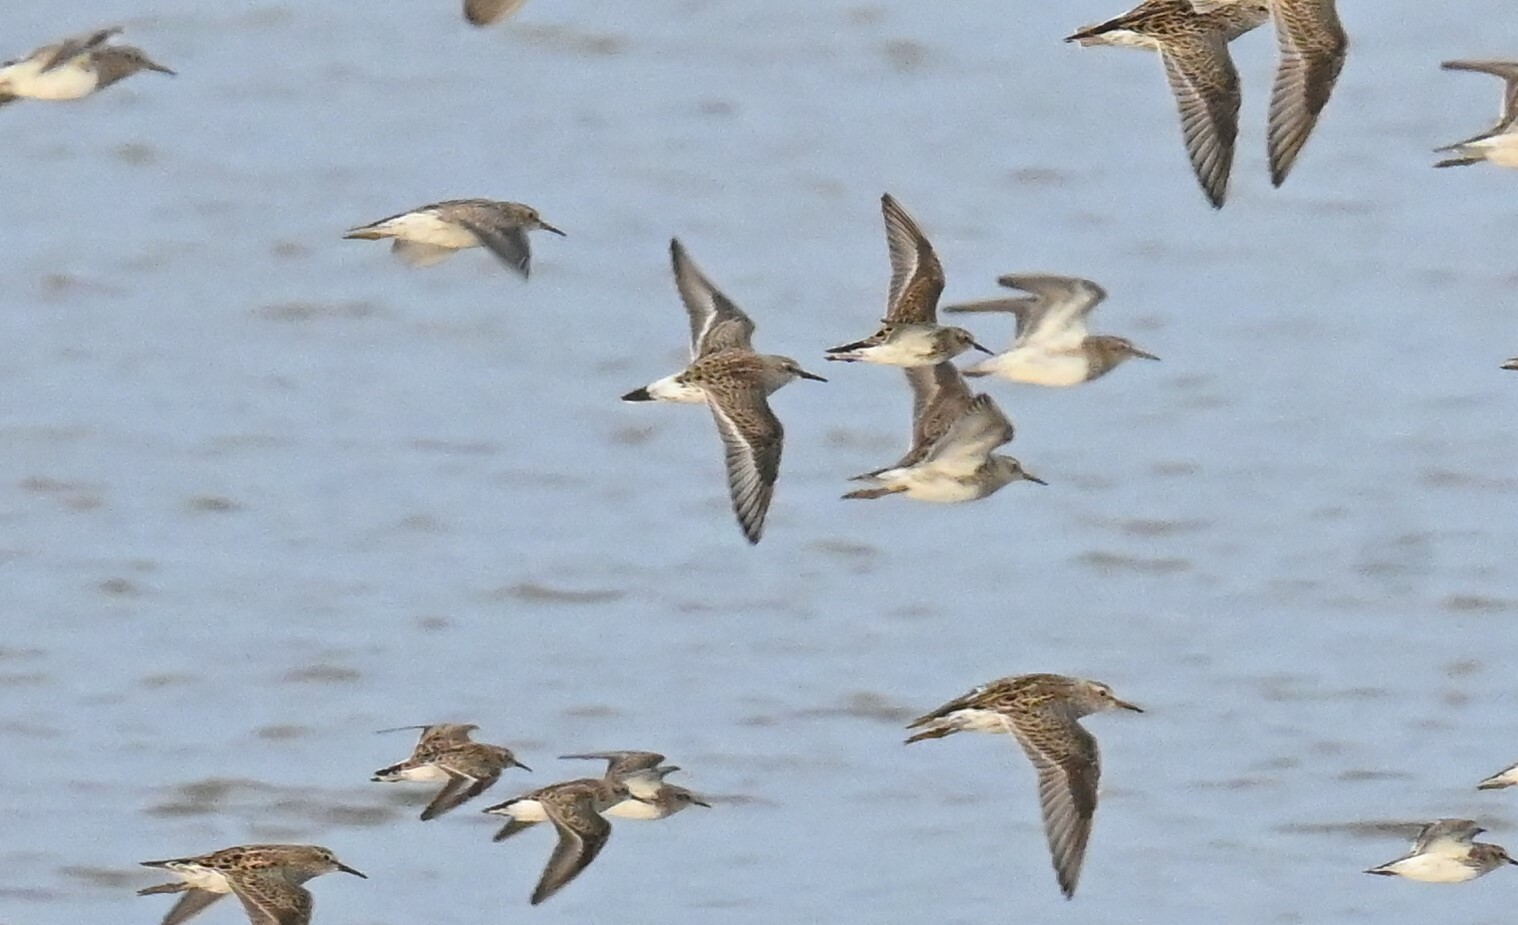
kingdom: Animalia
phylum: Chordata
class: Aves
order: Charadriiformes
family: Scolopacidae
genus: Calidris
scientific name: Calidris fuscicollis
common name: White-rumped sandpiper
